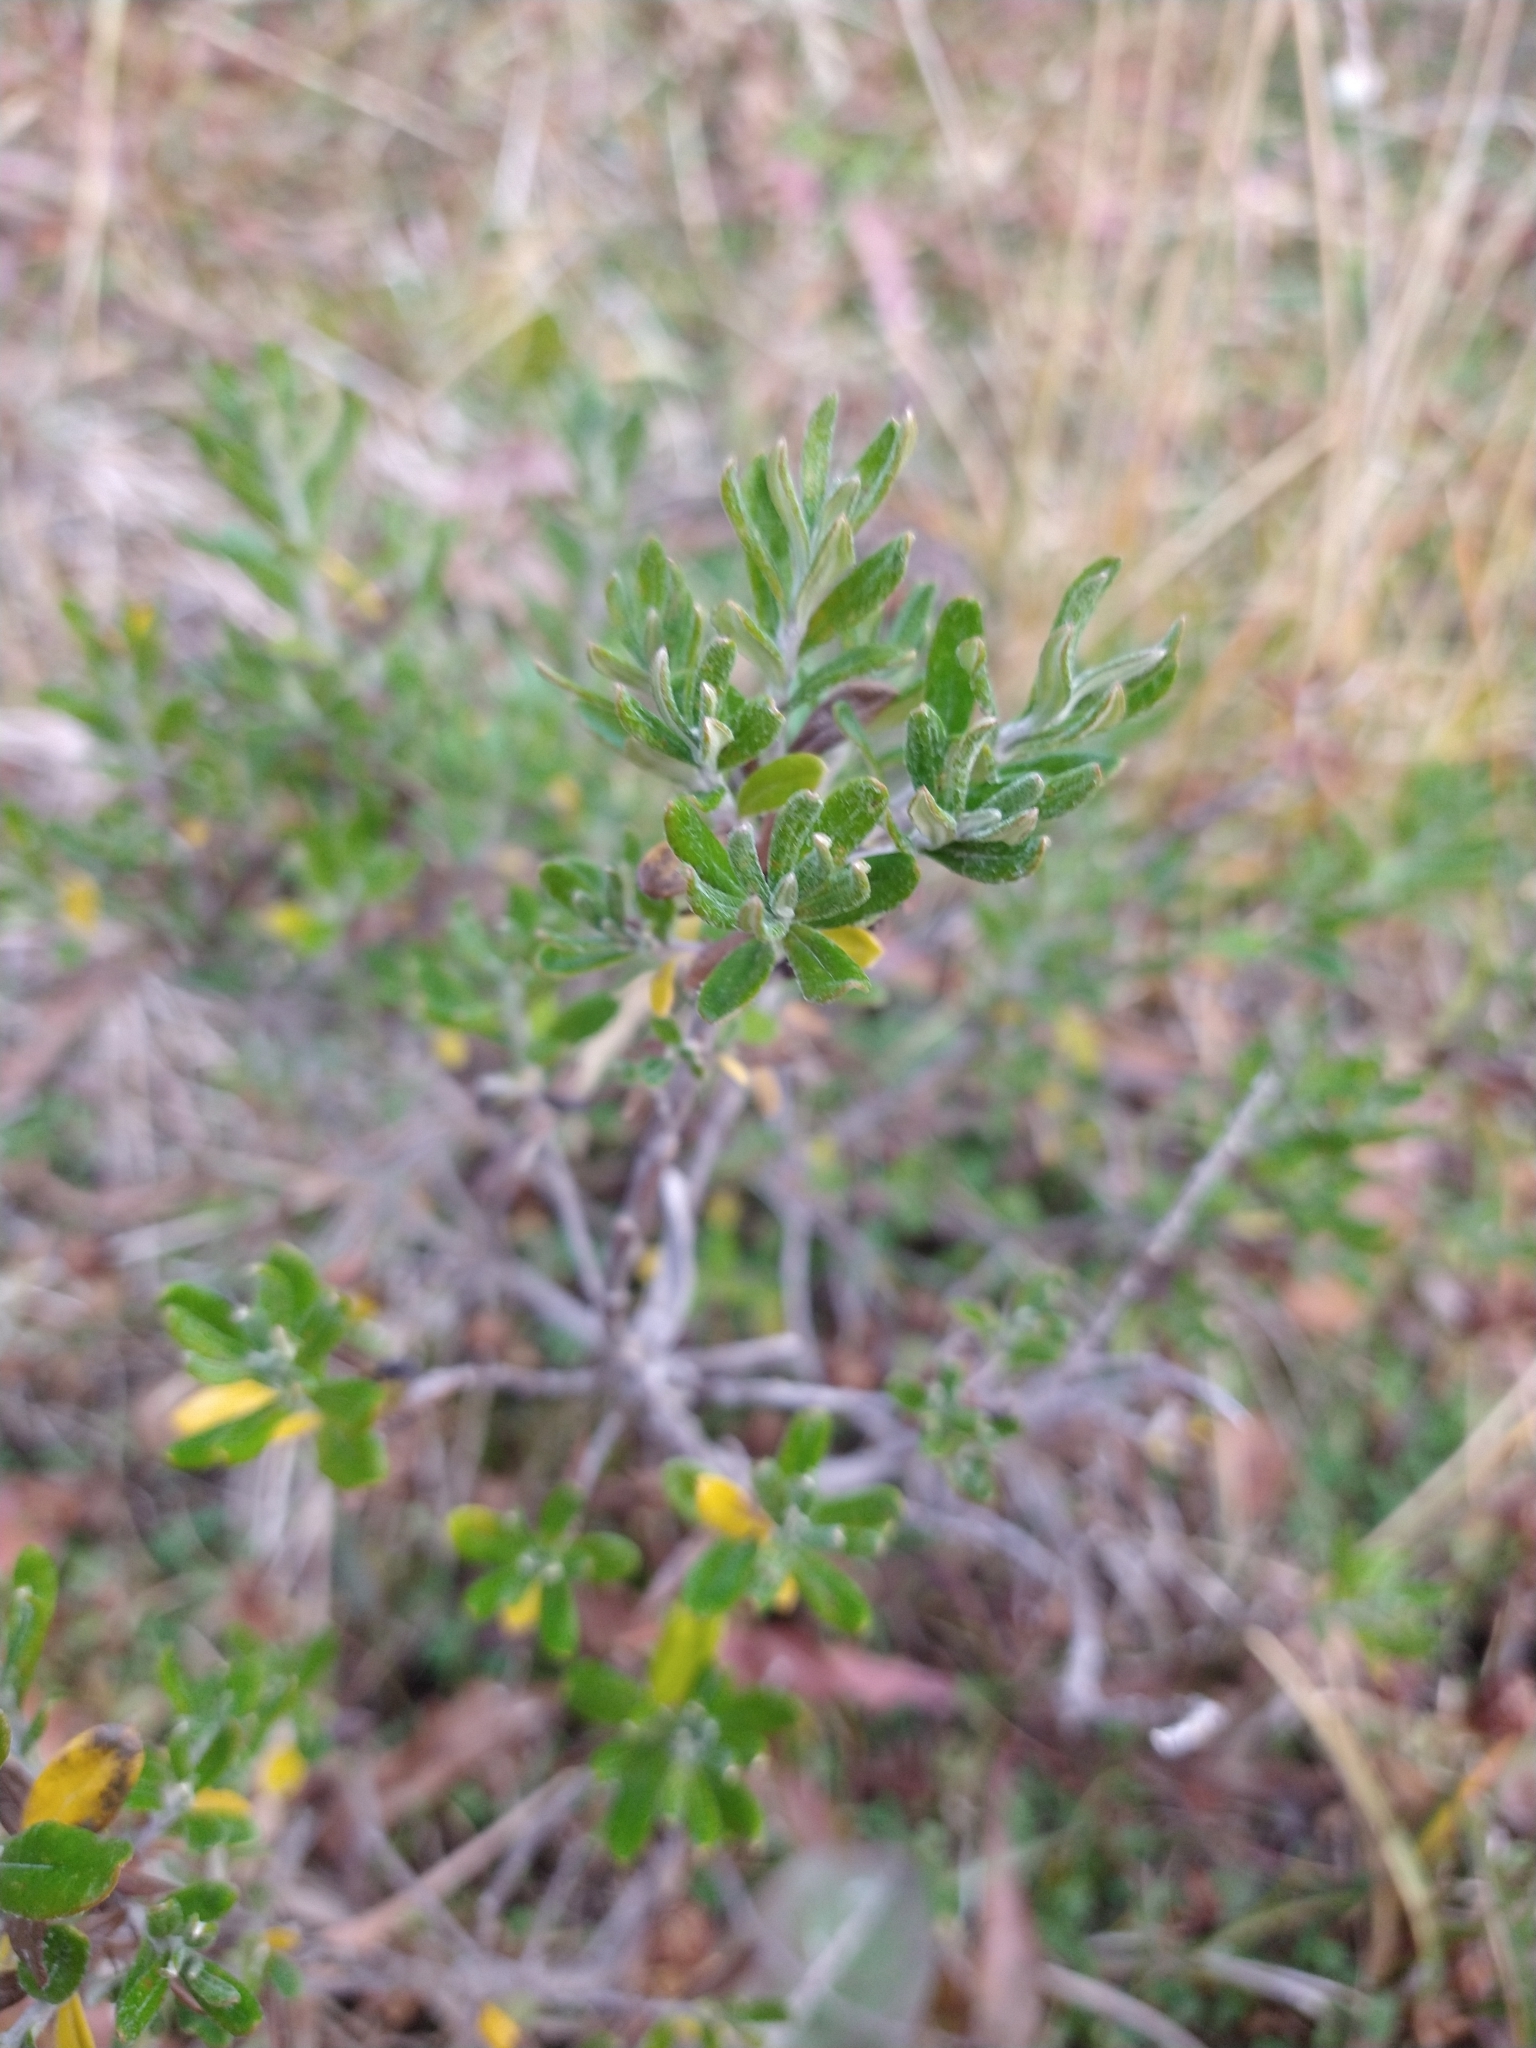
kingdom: Plantae
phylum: Tracheophyta
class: Magnoliopsida
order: Asterales
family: Asteraceae
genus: Chiliotrichum
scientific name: Chiliotrichum diffusum
